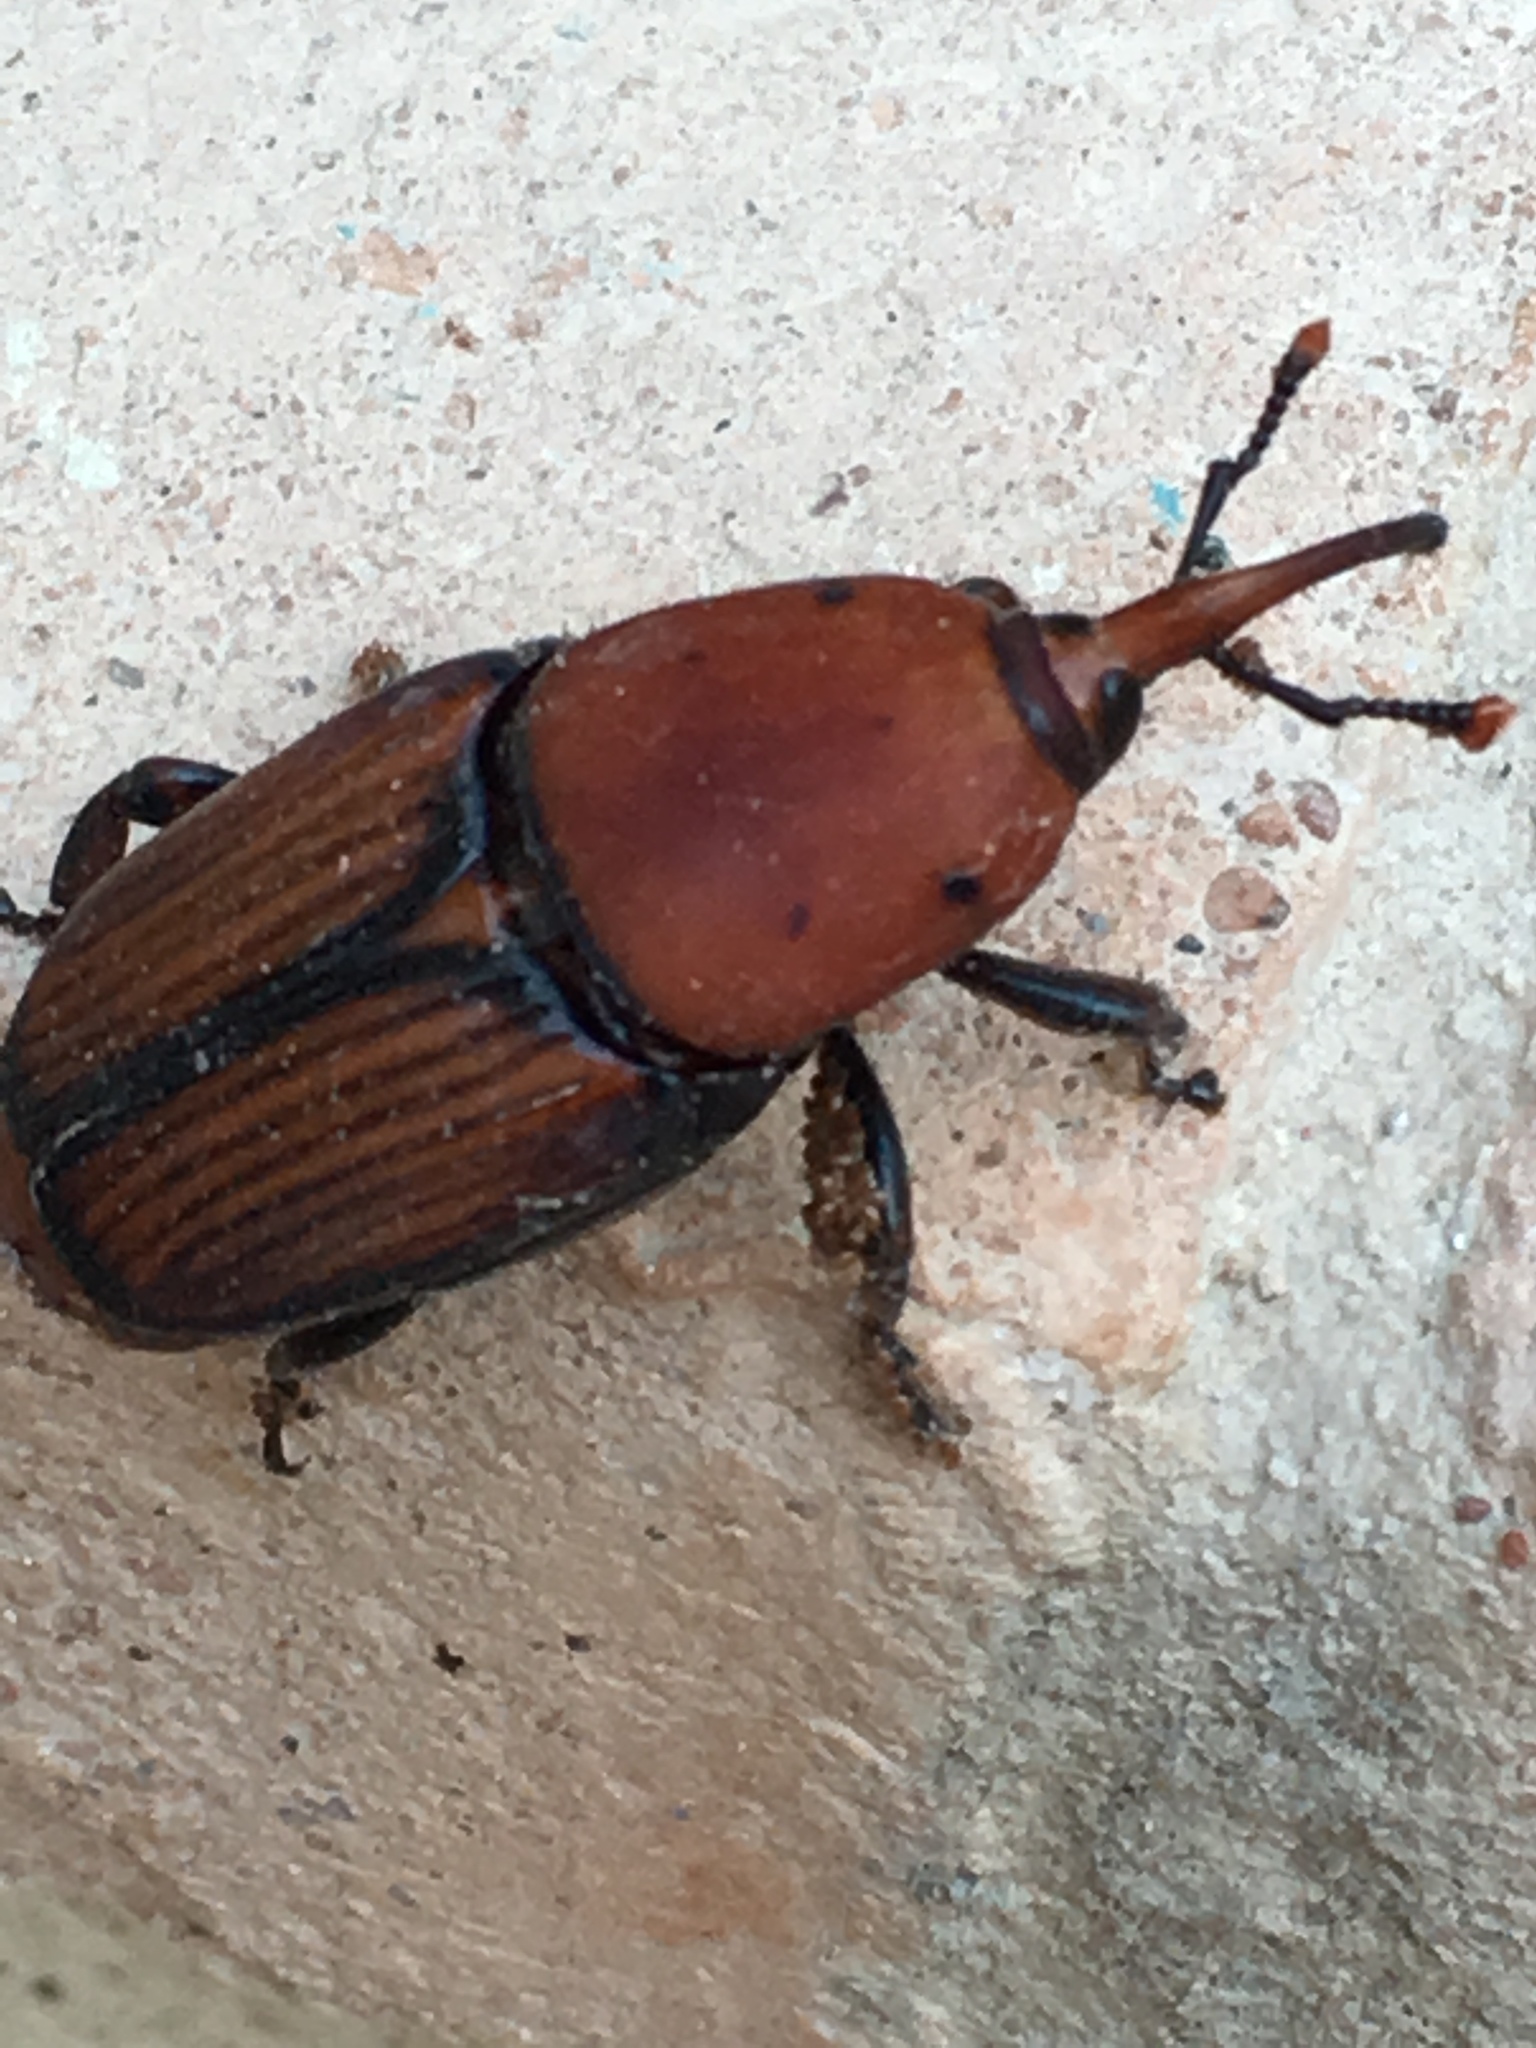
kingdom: Animalia
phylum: Arthropoda
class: Insecta
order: Coleoptera
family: Dryophthoridae
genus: Rhynchophorus
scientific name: Rhynchophorus ferrugineus
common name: Red palm weevil
